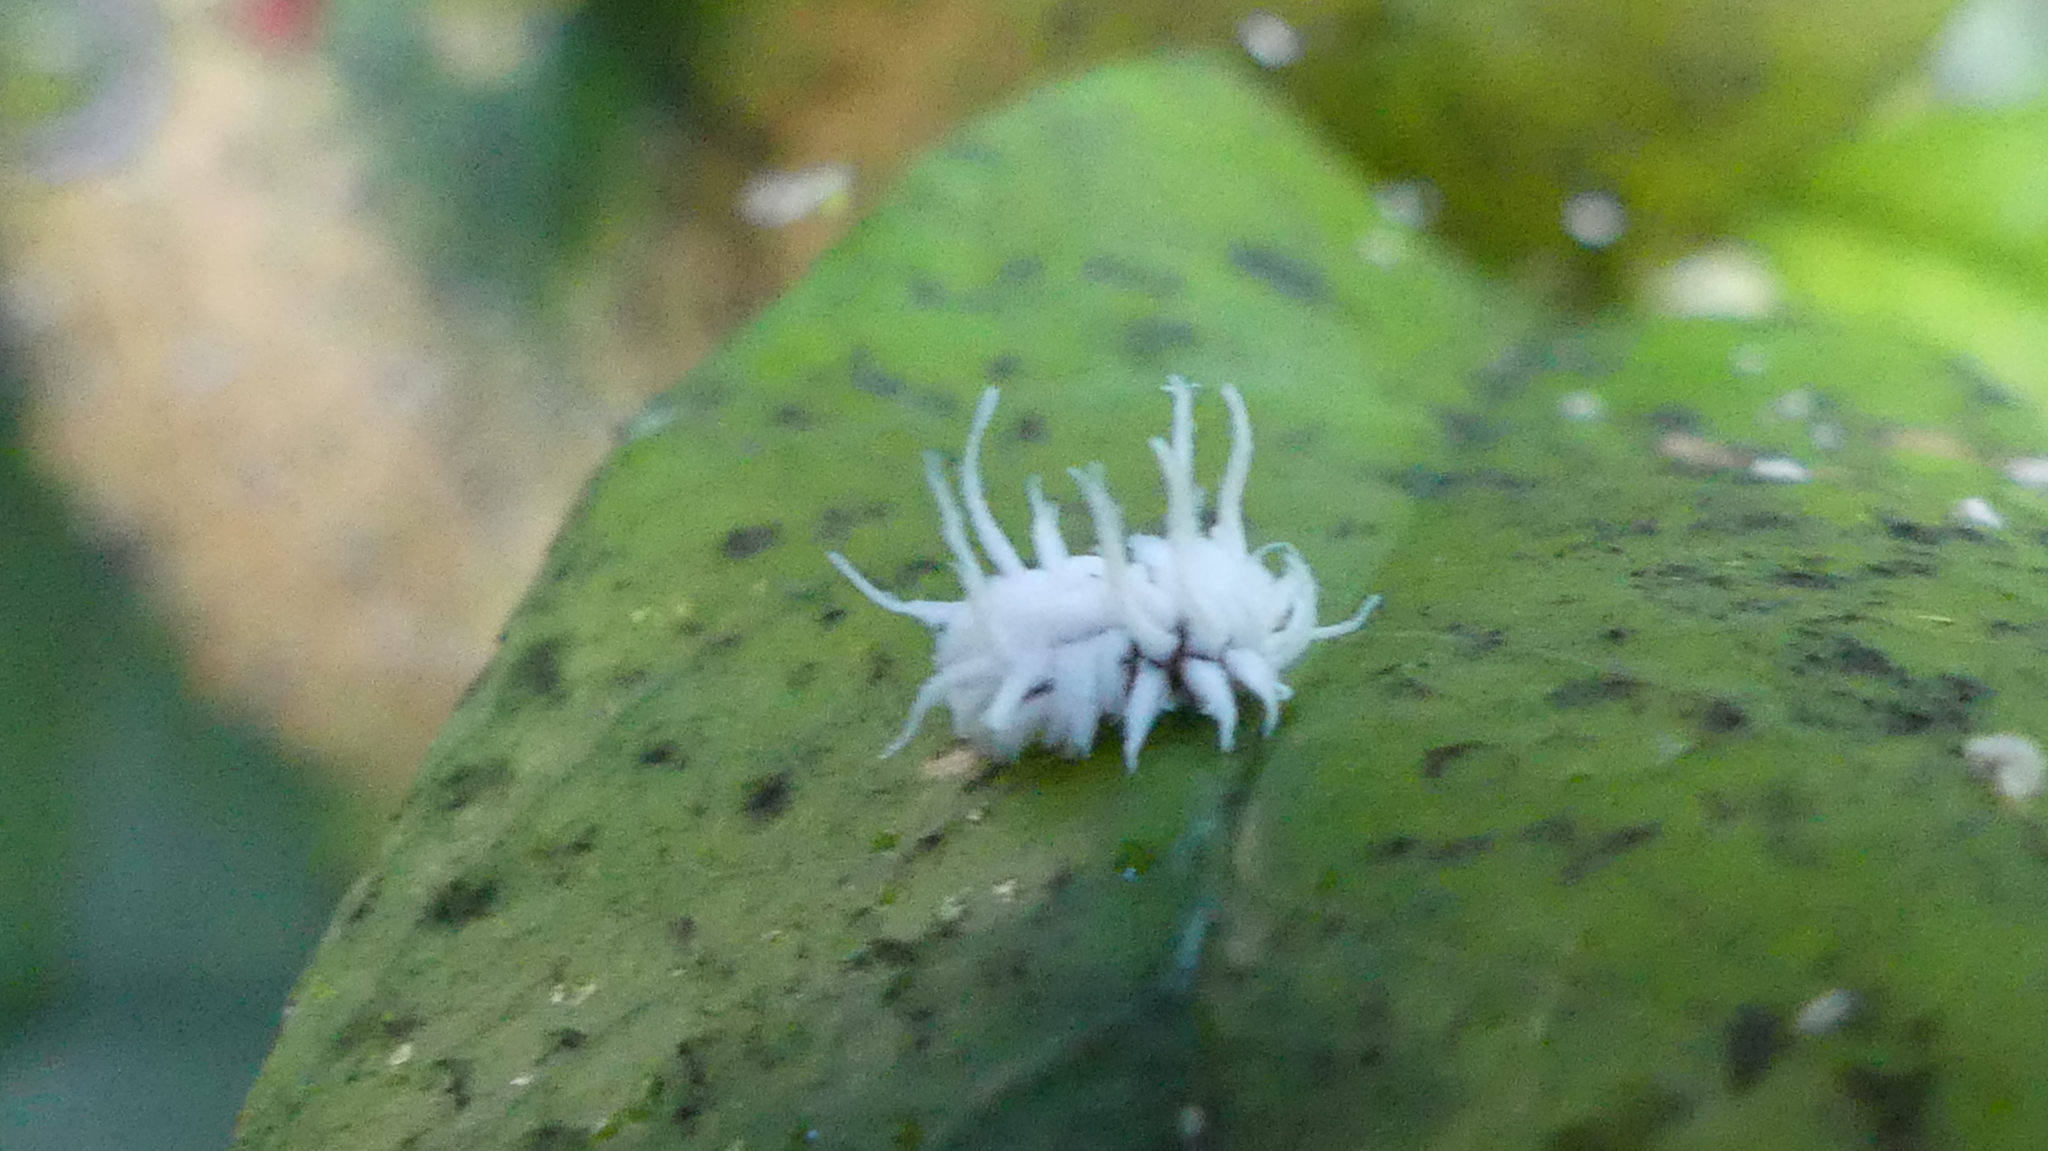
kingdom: Animalia
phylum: Arthropoda
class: Insecta
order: Coleoptera
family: Coccinellidae
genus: Cryptolaemus
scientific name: Cryptolaemus montrouzieri
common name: Mealybug destroyer
